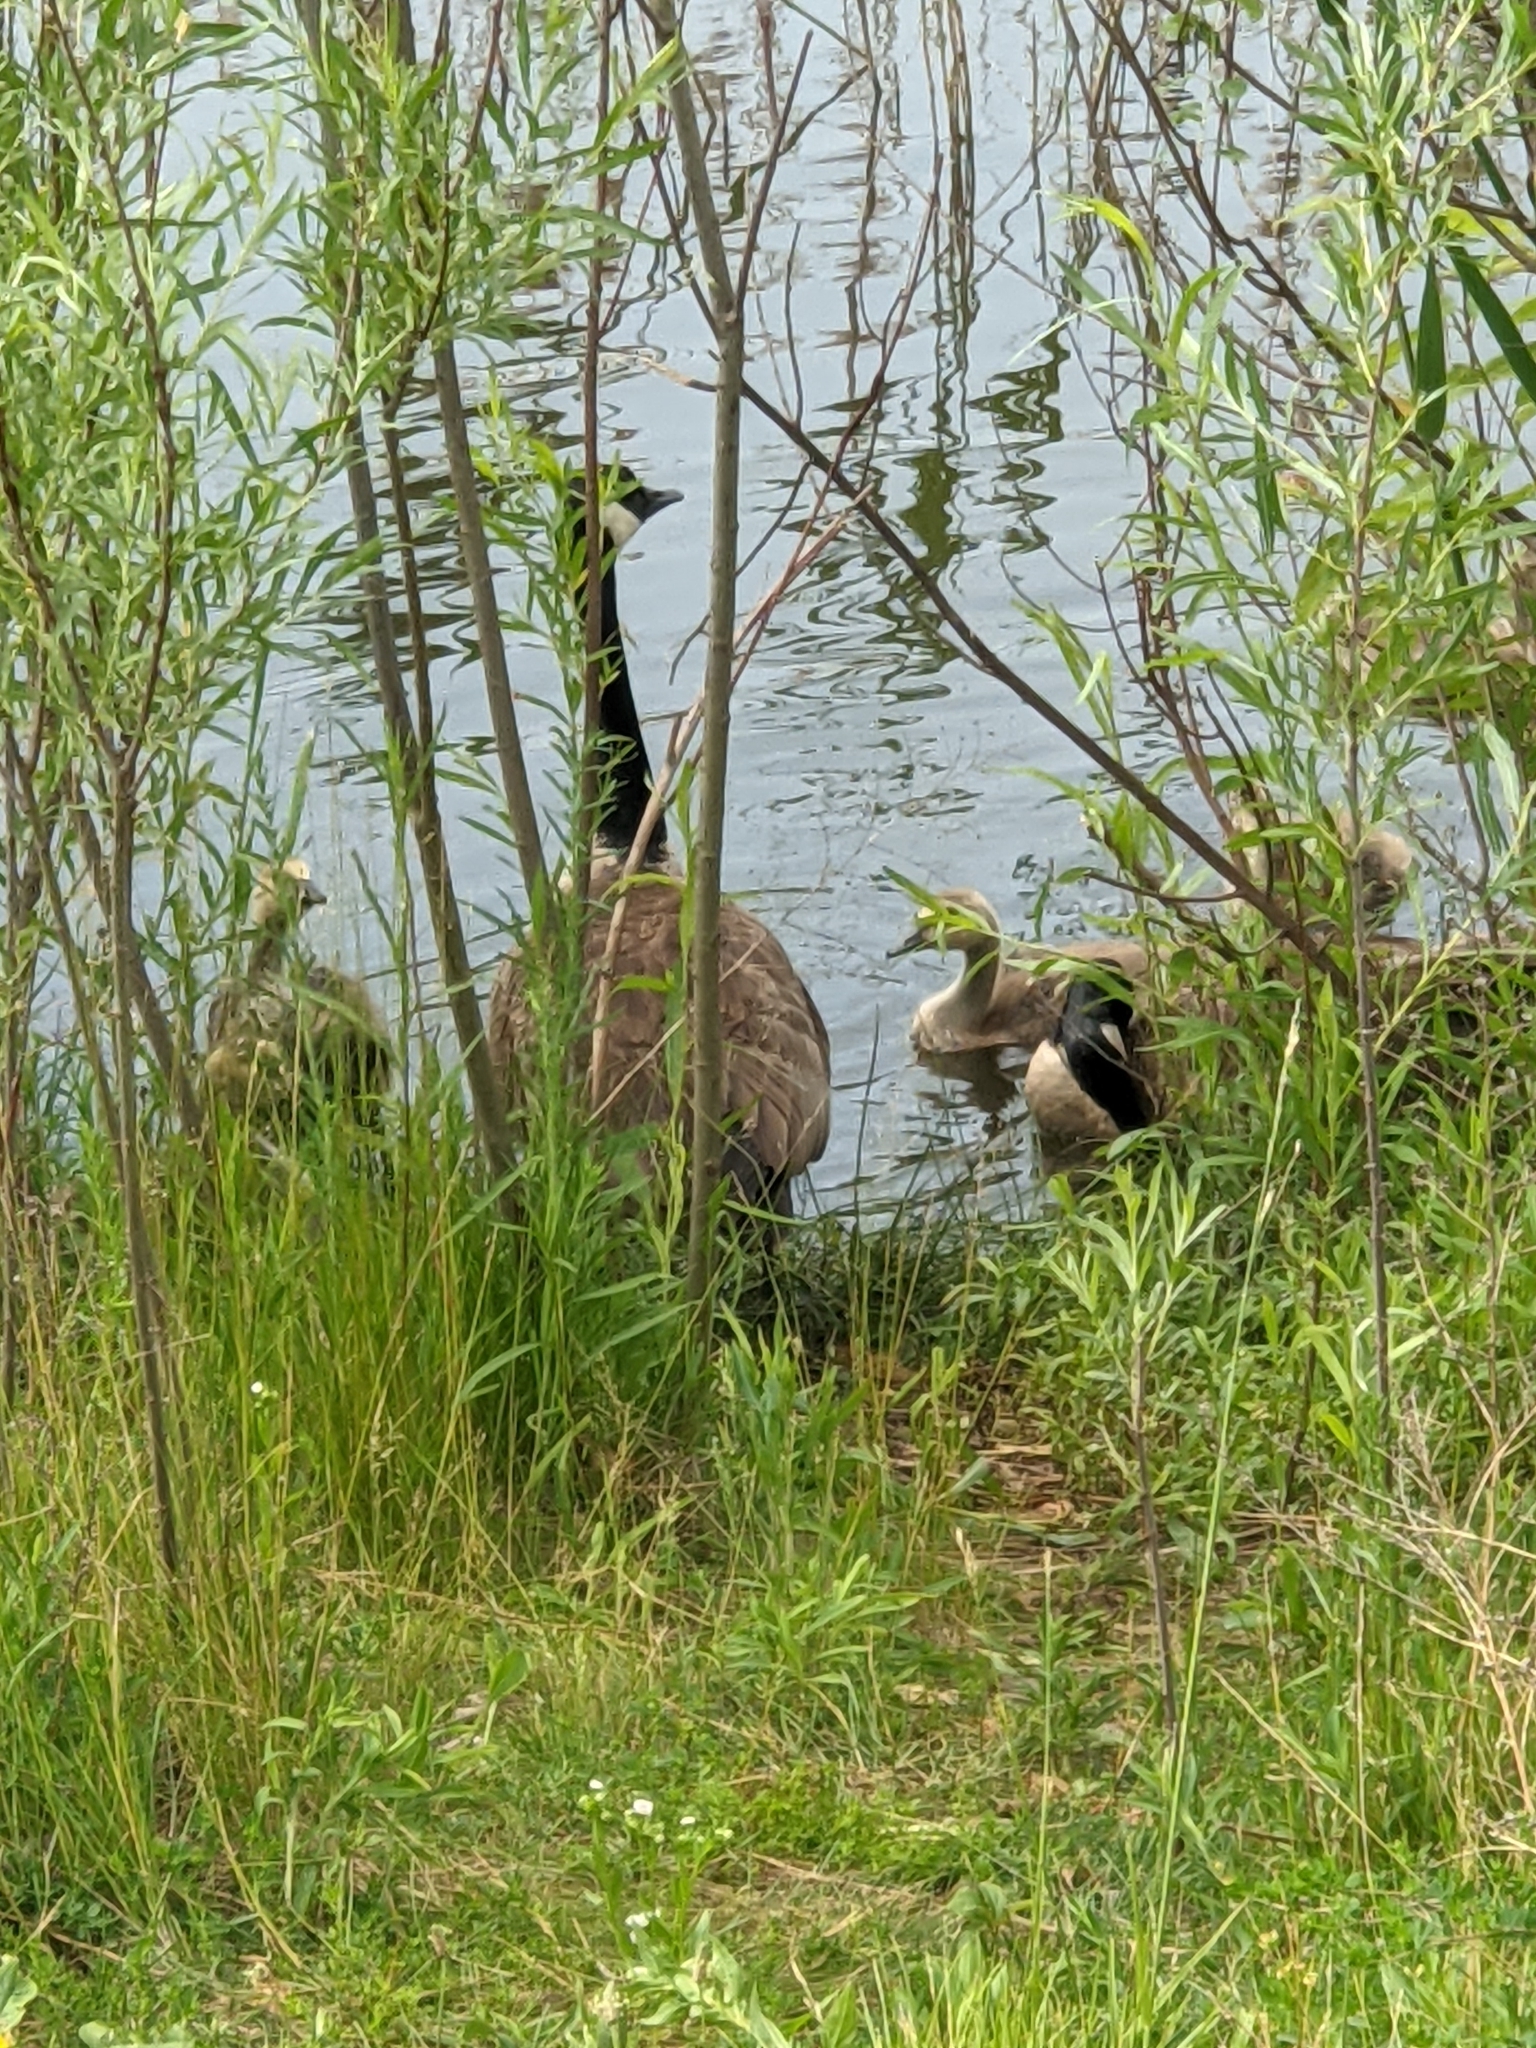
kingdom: Animalia
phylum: Chordata
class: Aves
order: Anseriformes
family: Anatidae
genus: Branta
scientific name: Branta canadensis
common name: Canada goose
